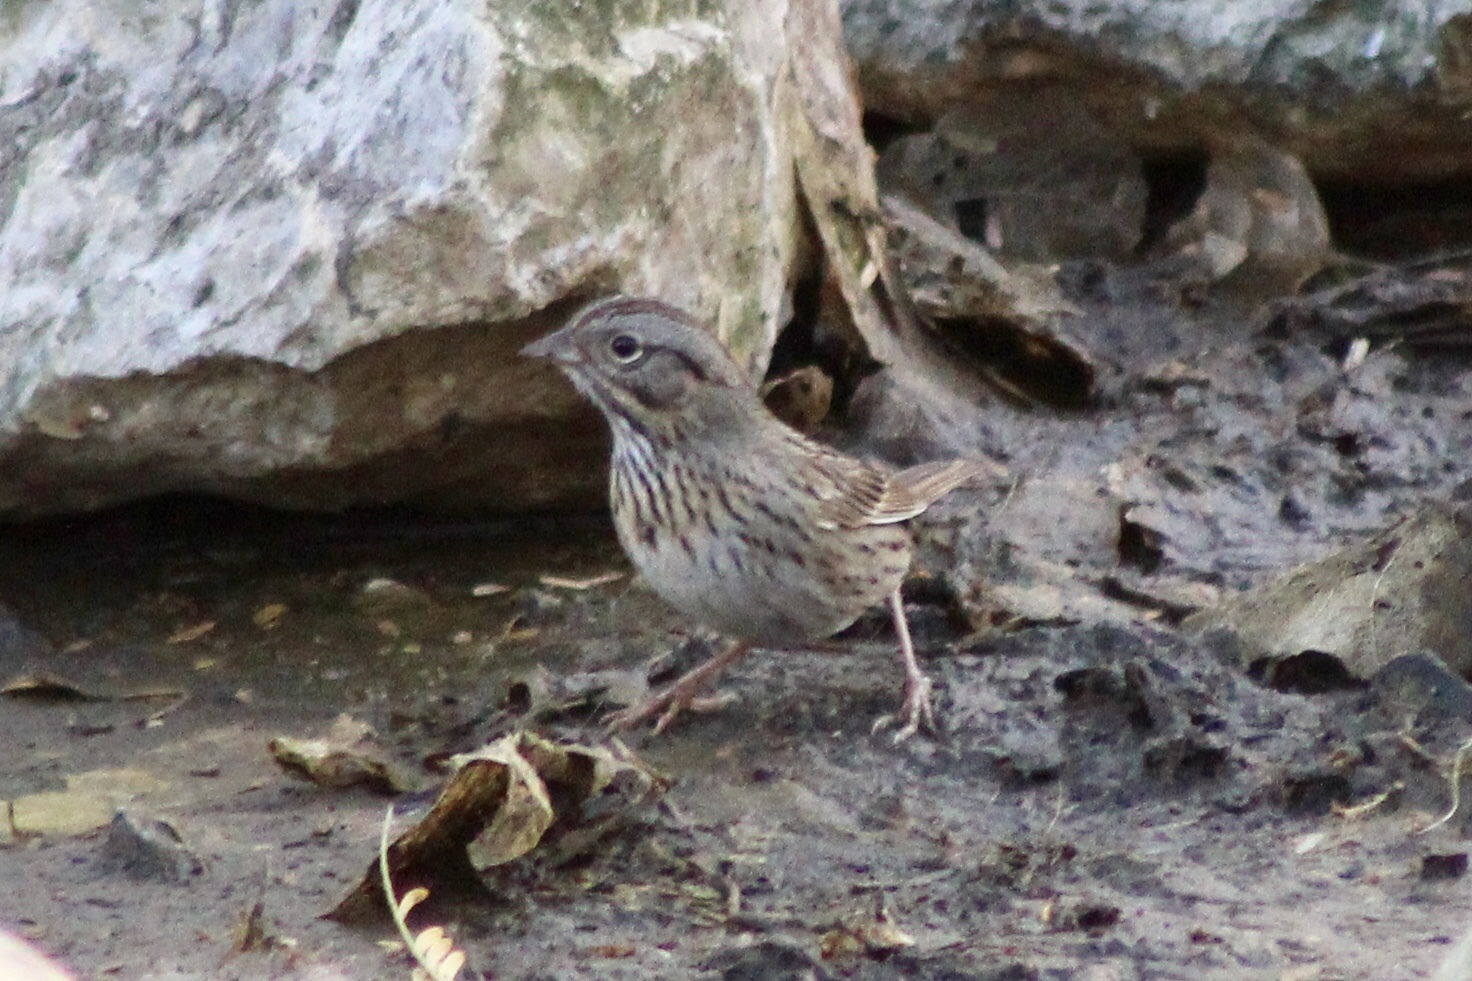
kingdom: Animalia
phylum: Chordata
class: Aves
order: Passeriformes
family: Passerellidae
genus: Melospiza
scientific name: Melospiza lincolnii
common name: Lincoln's sparrow
